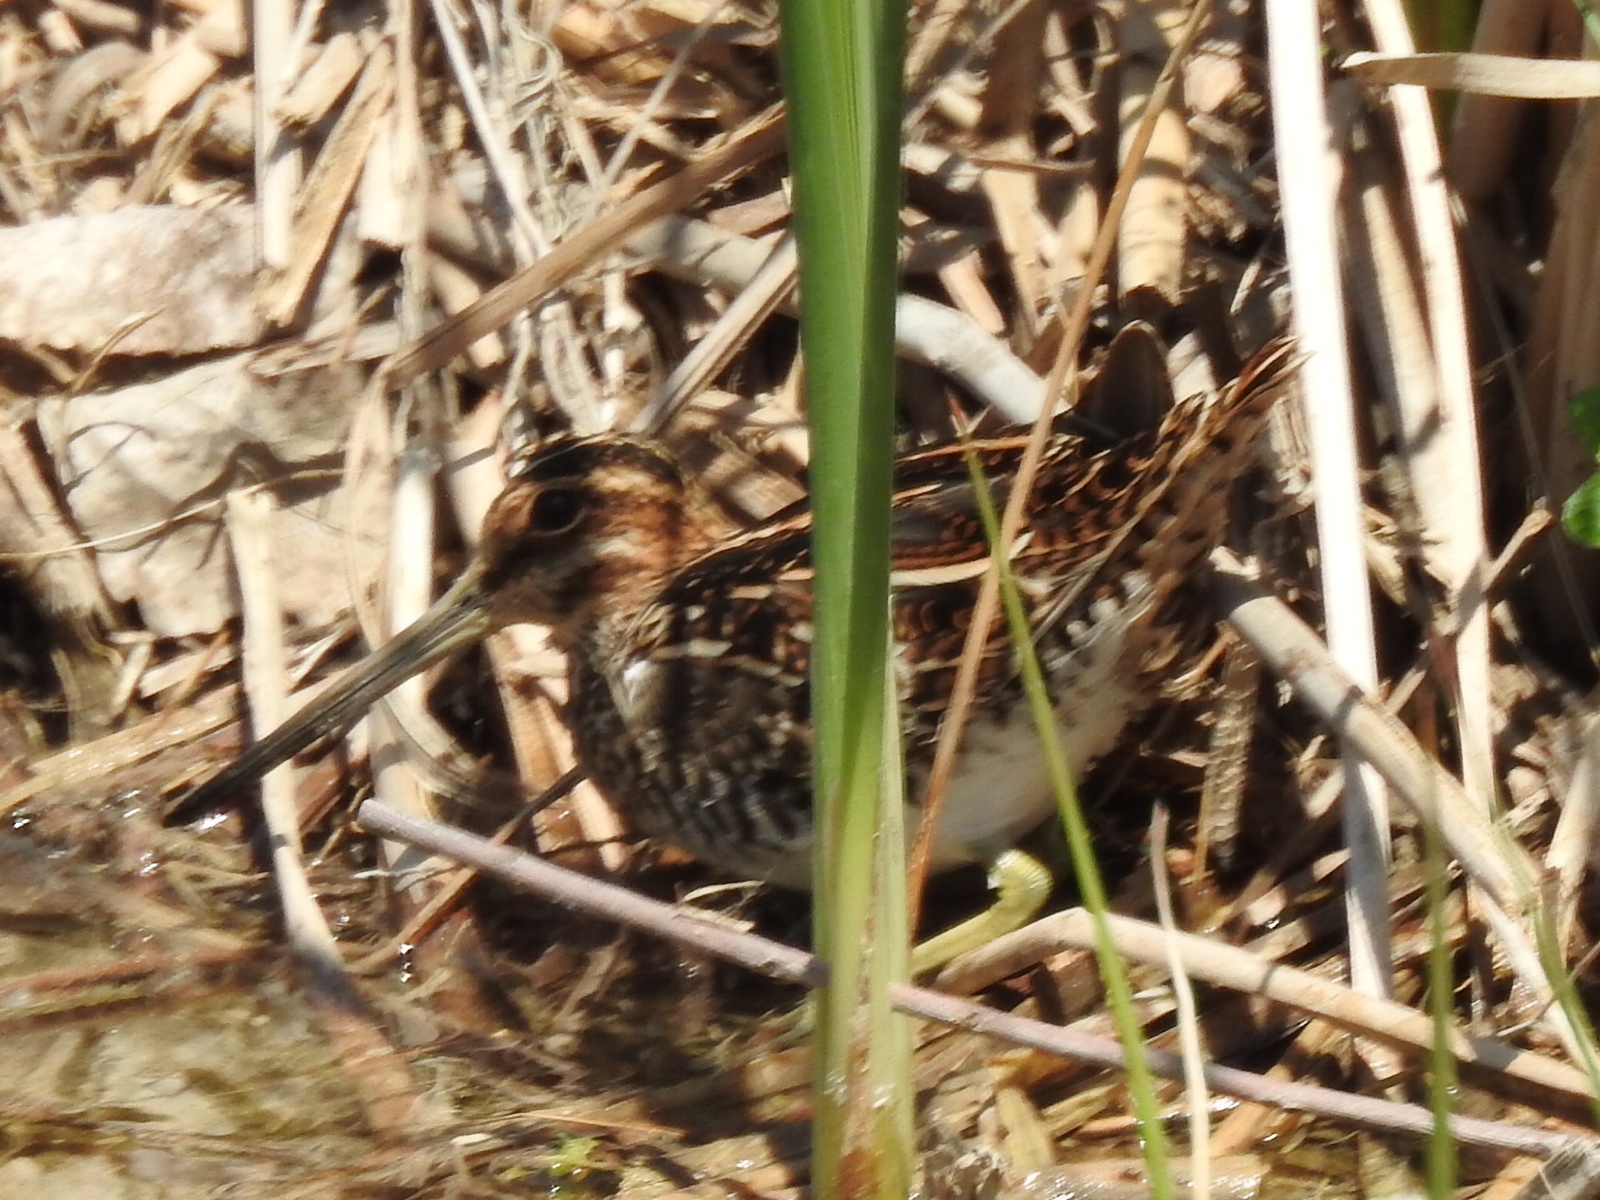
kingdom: Animalia
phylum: Chordata
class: Aves
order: Charadriiformes
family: Scolopacidae
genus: Gallinago
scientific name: Gallinago delicata
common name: Wilson's snipe
